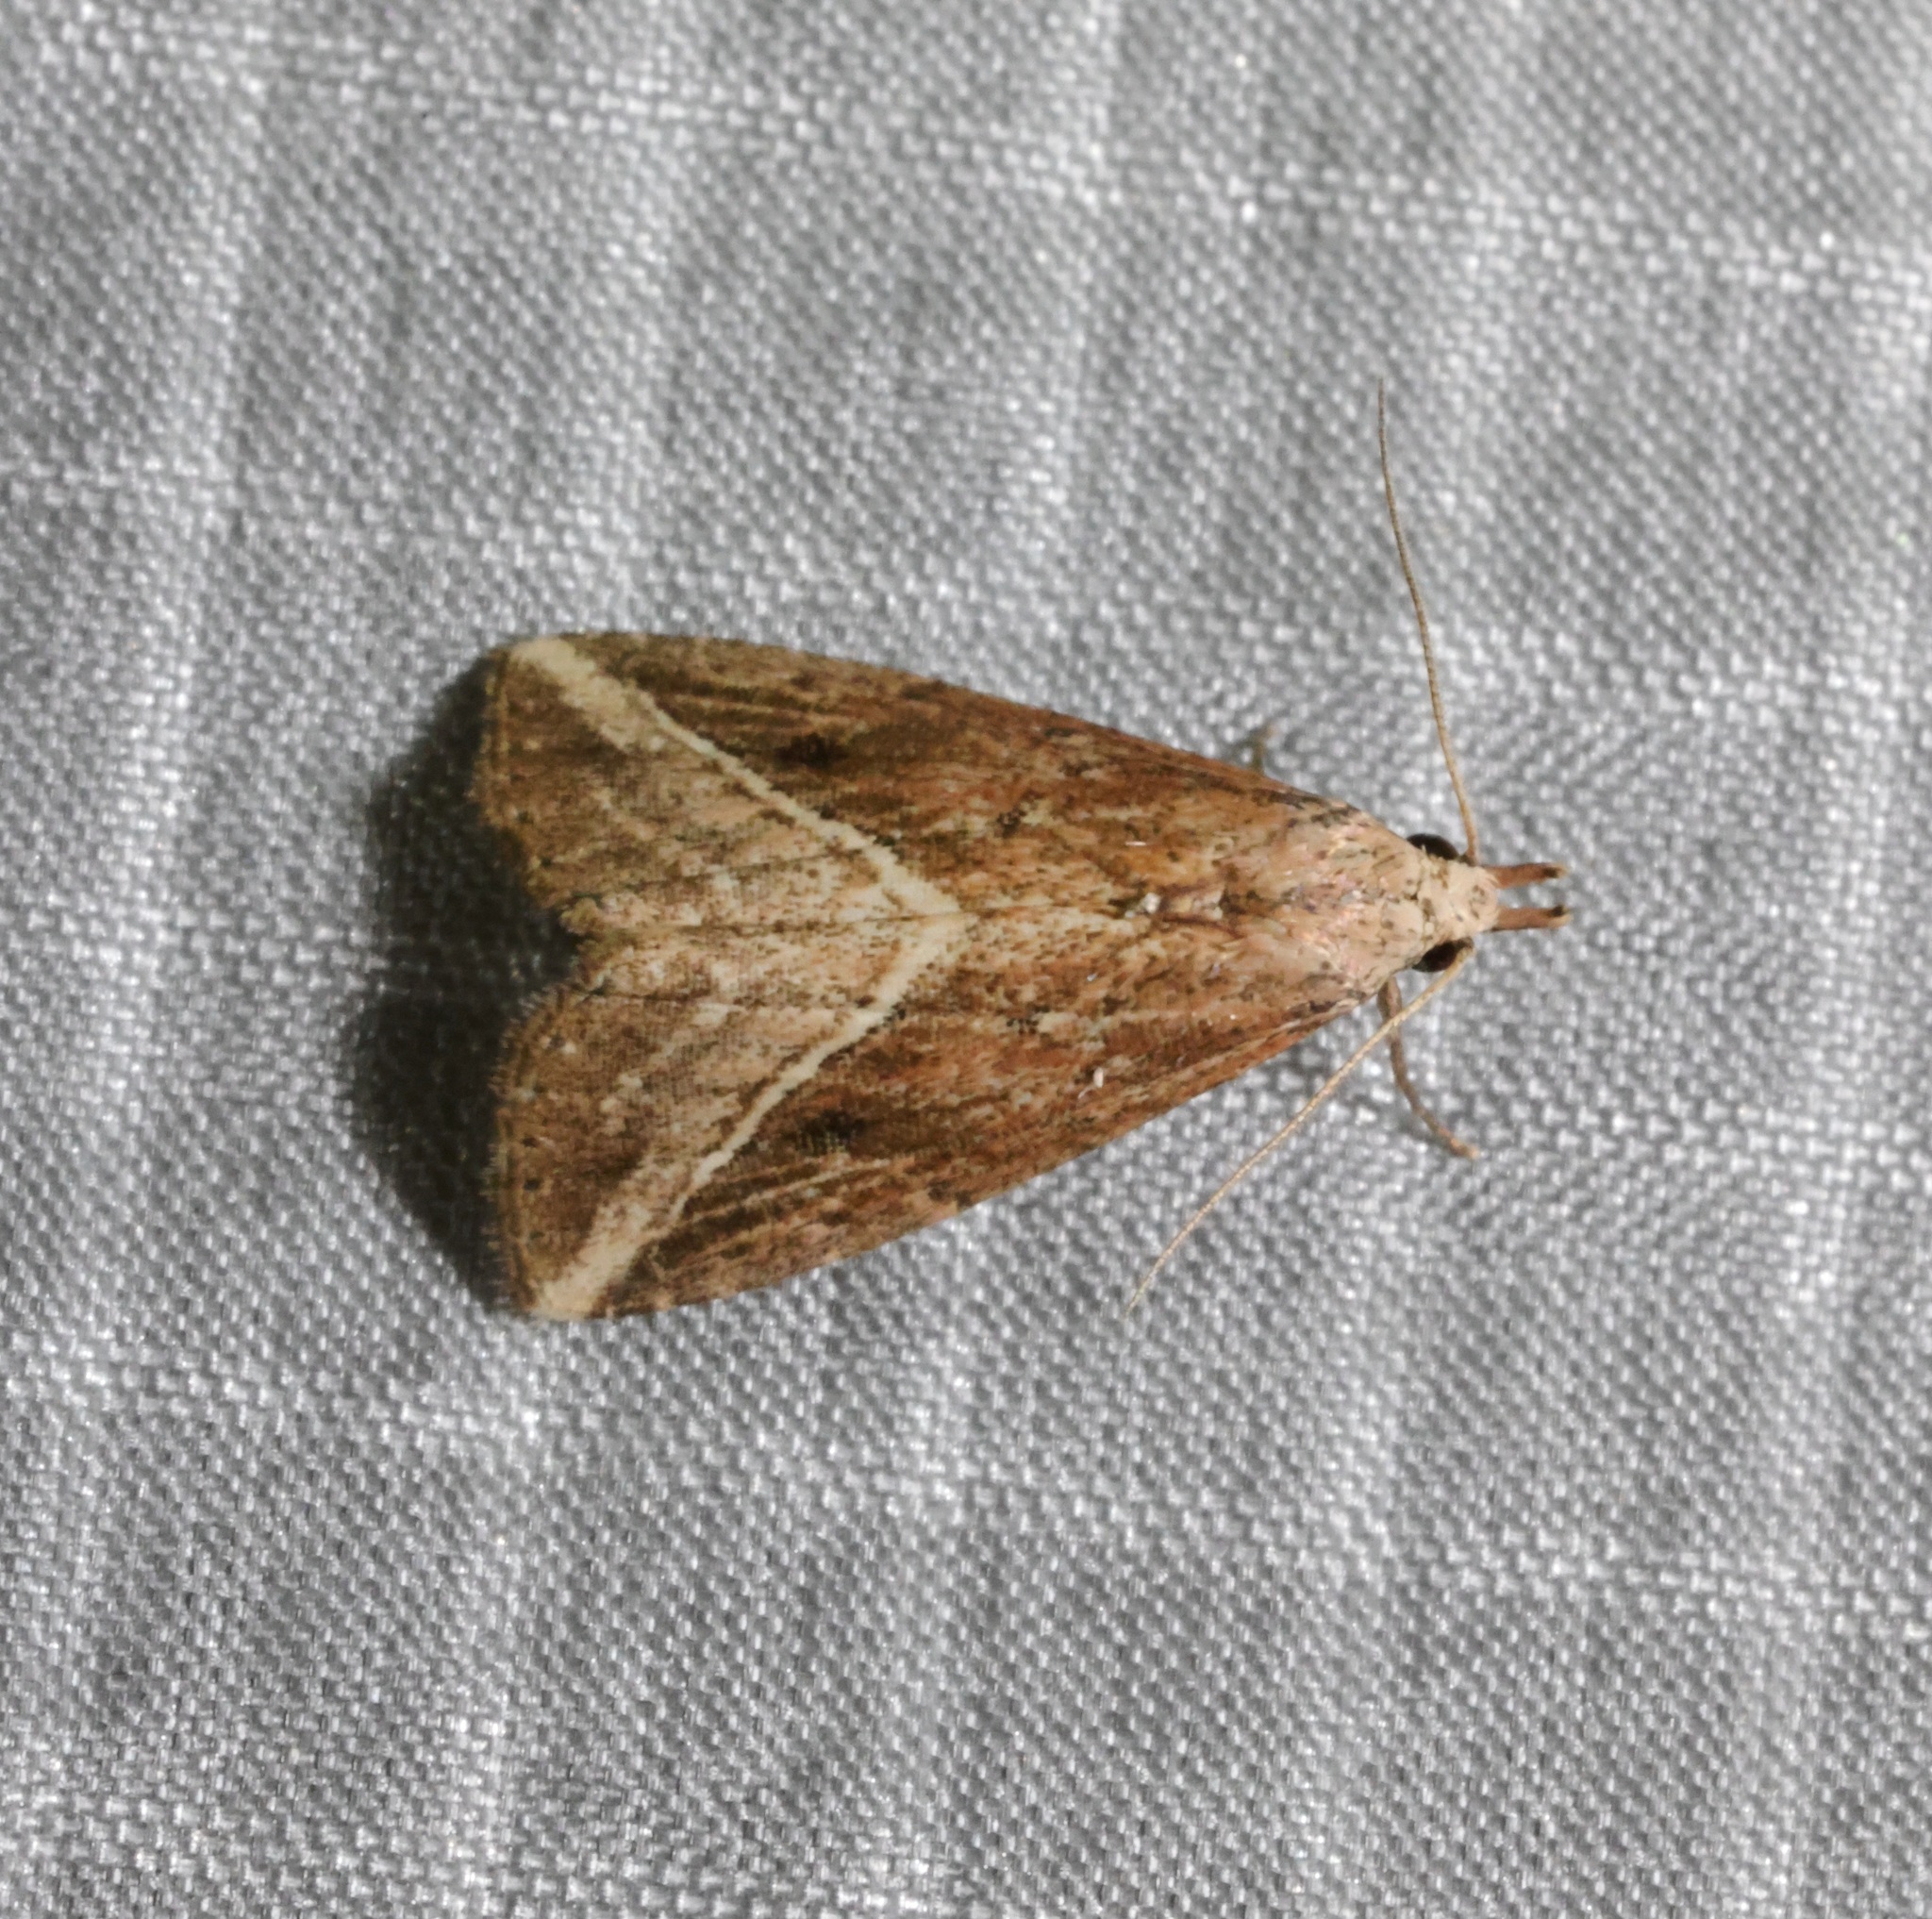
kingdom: Animalia
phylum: Arthropoda
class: Insecta
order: Lepidoptera
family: Erebidae
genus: Luceria
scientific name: Luceria striata
